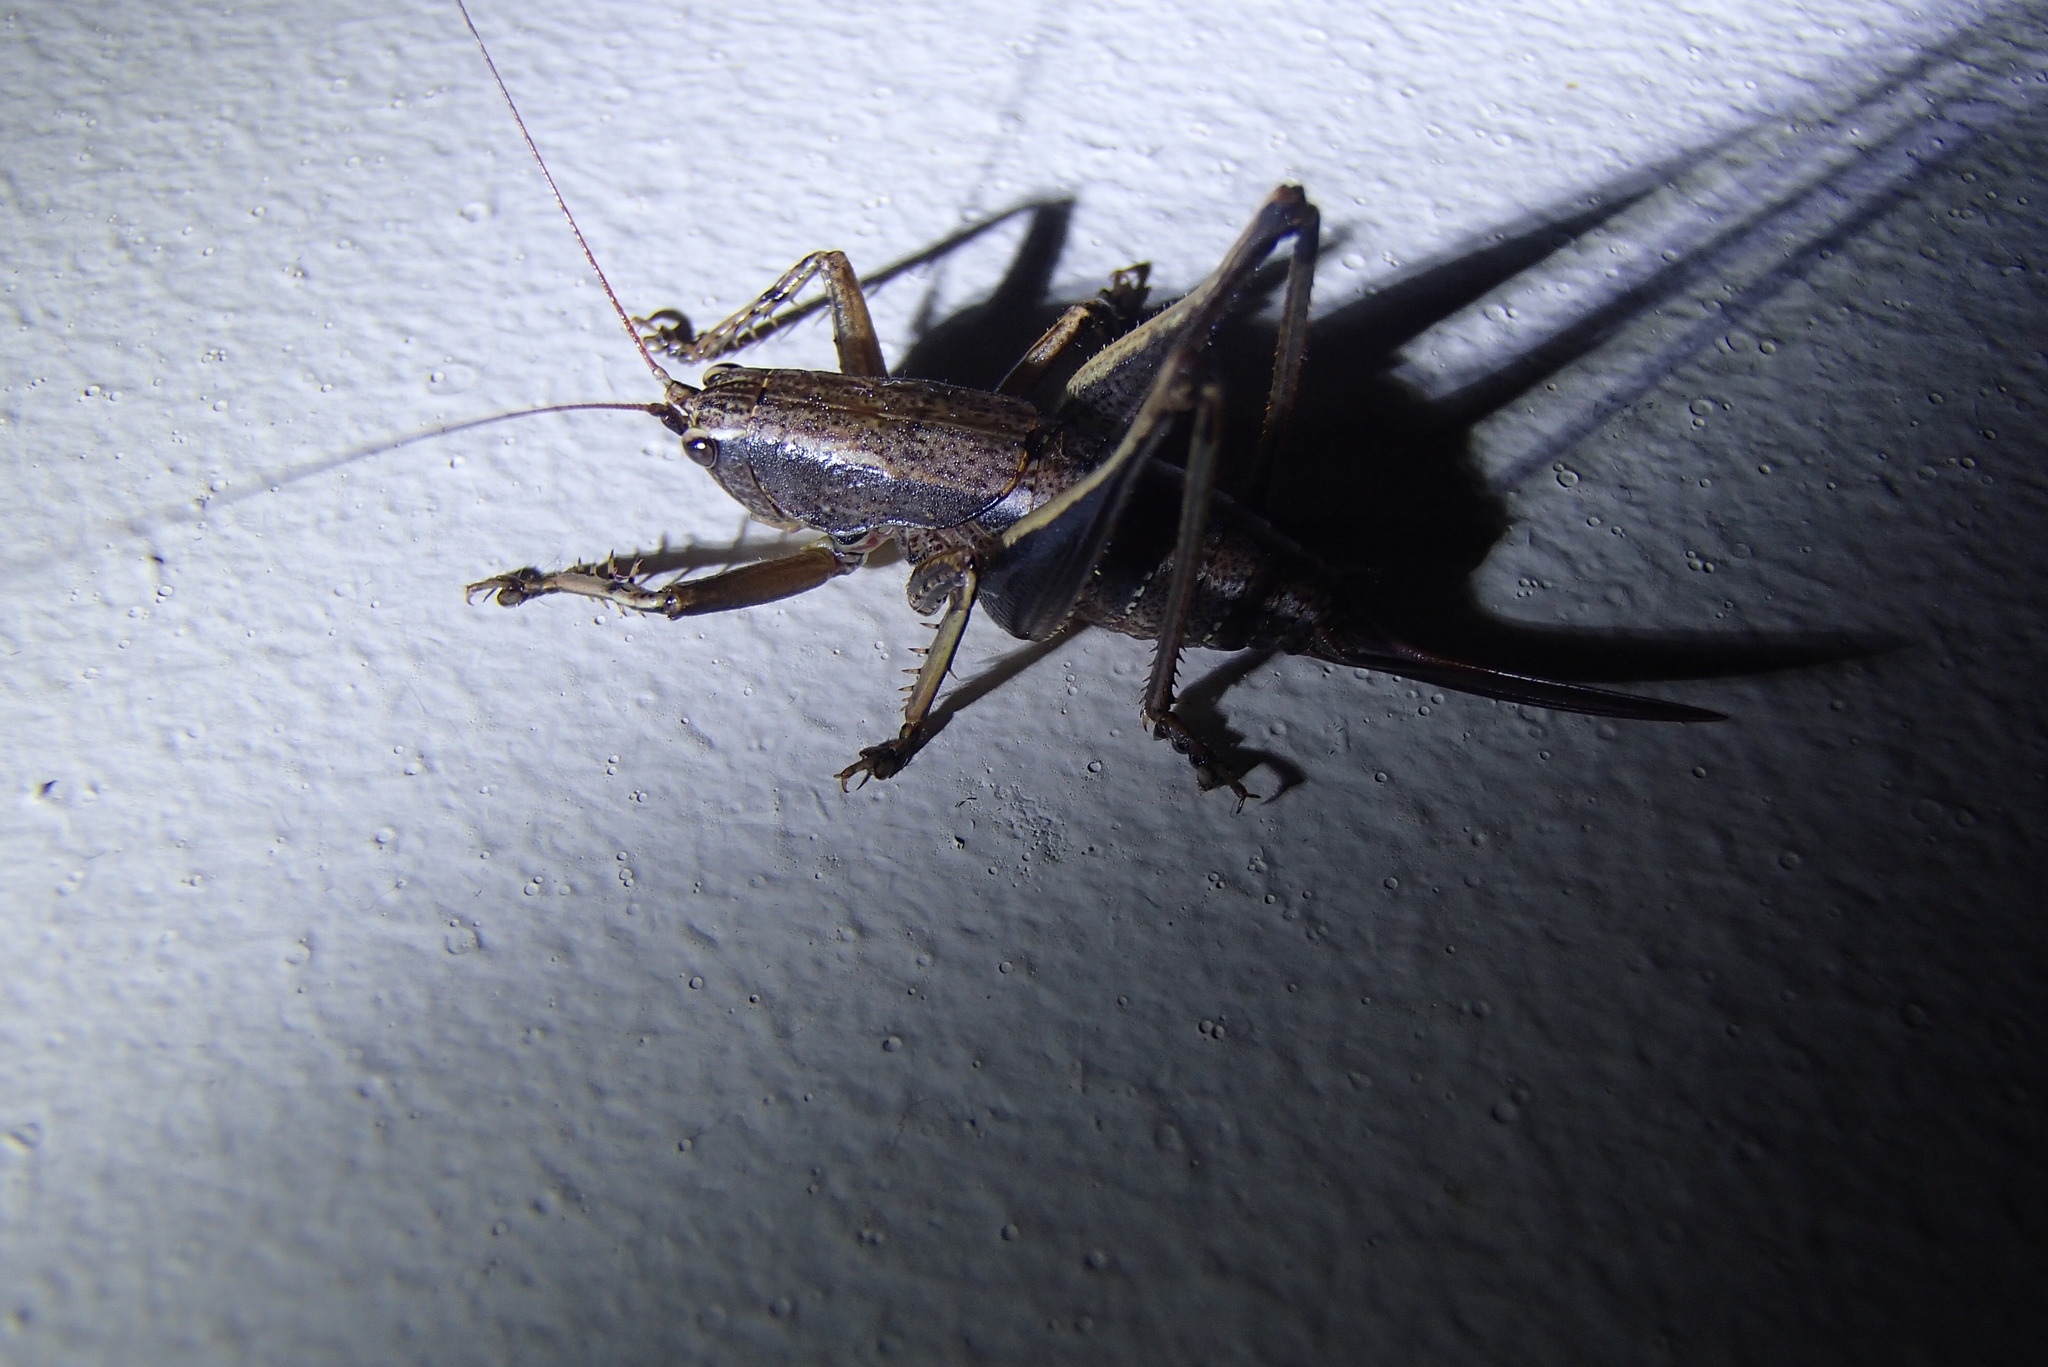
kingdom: Animalia
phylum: Arthropoda
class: Insecta
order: Orthoptera
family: Tettigoniidae
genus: Requena
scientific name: Requena baraya
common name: Common eastern requena
